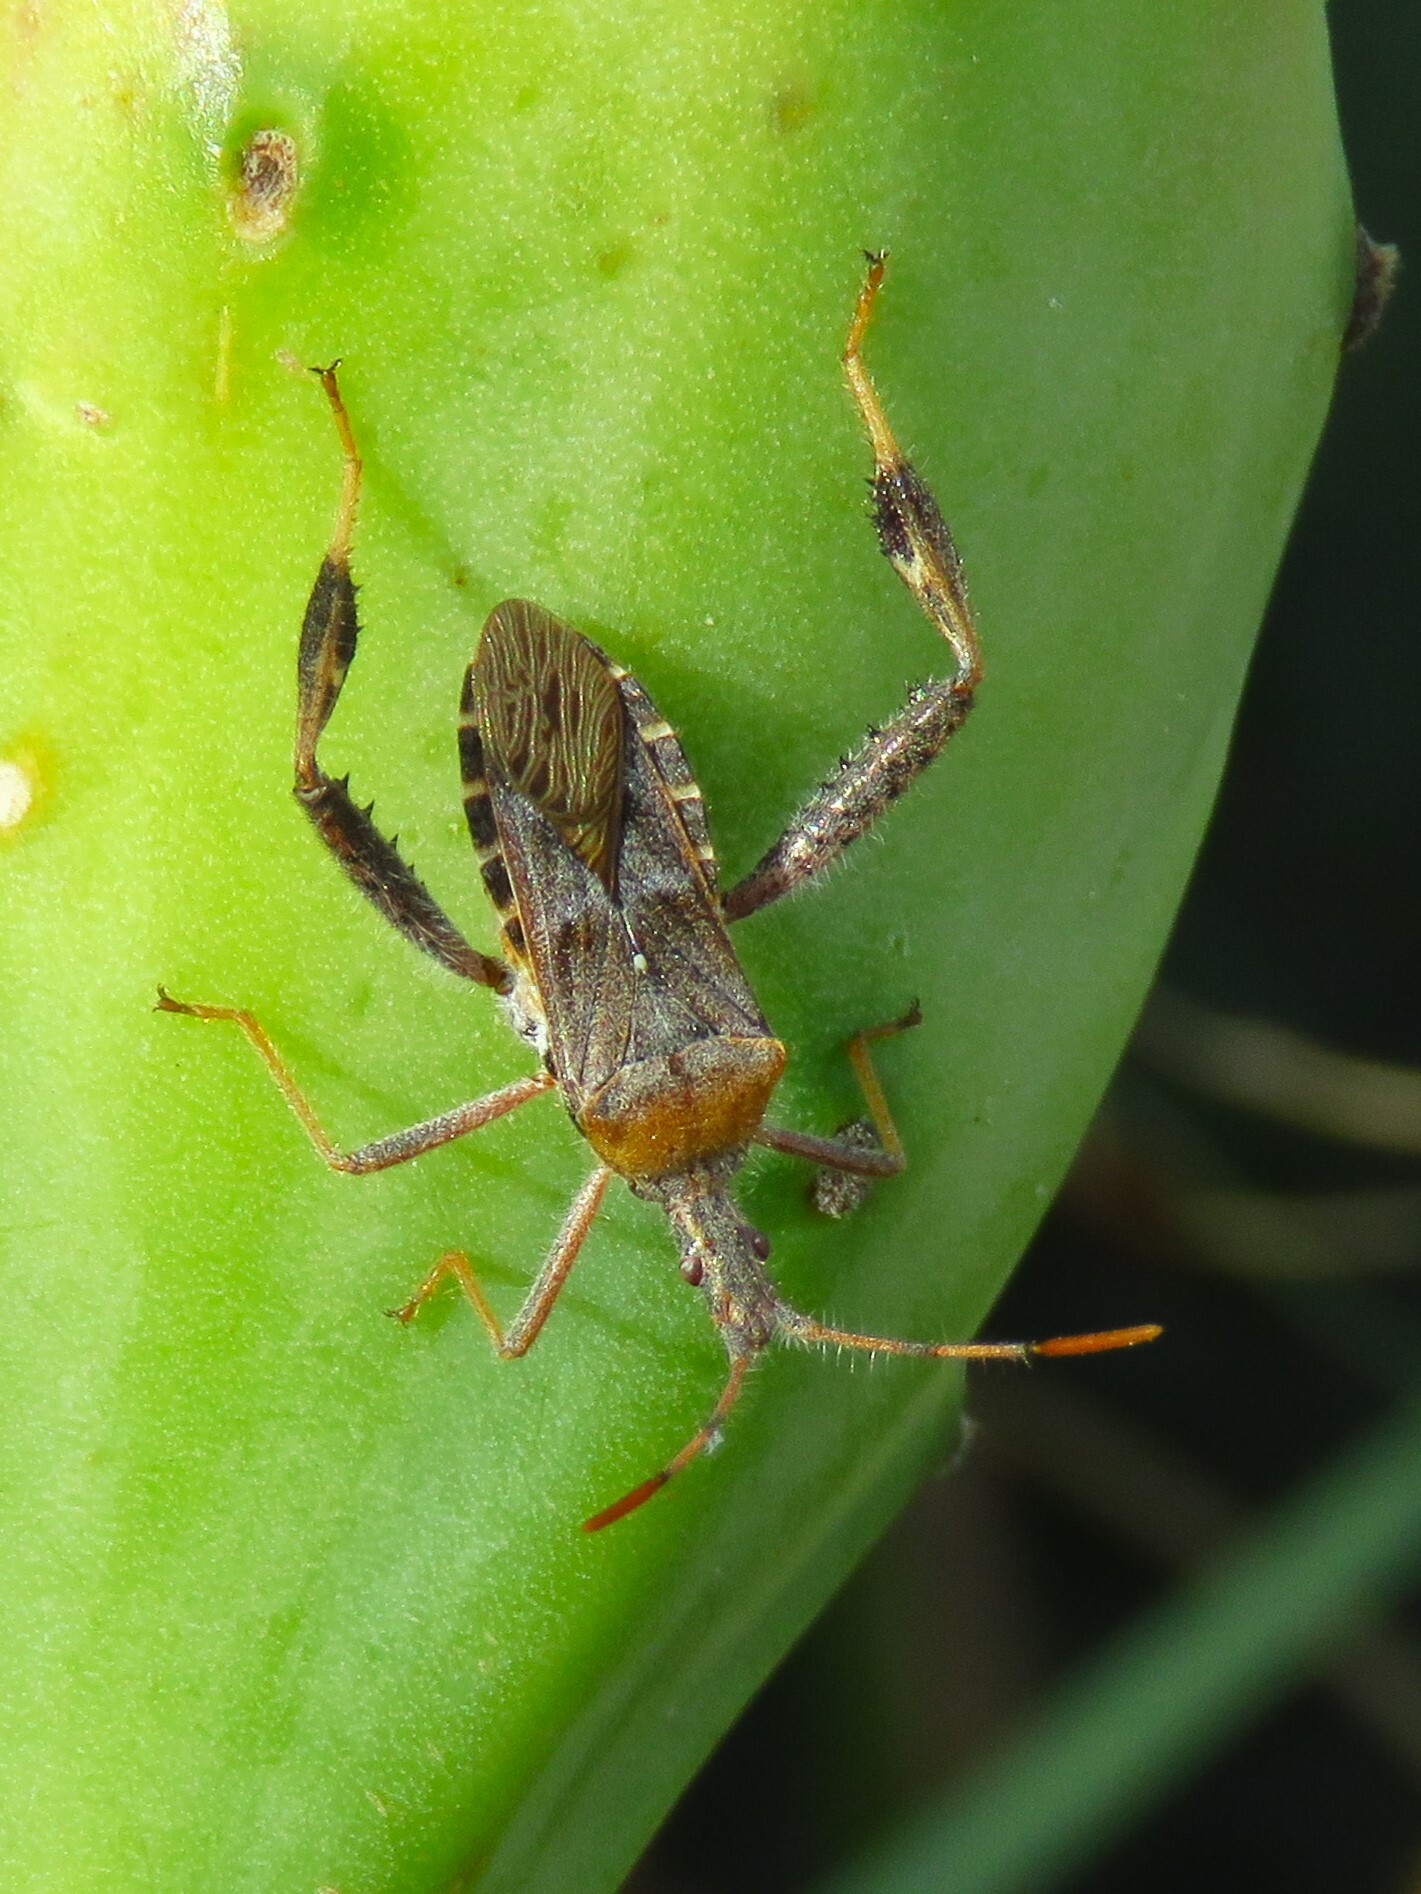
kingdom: Animalia
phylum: Arthropoda
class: Insecta
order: Hemiptera
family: Coreidae
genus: Narnia
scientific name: Narnia femorata
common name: Leaf-footed cactus bug
